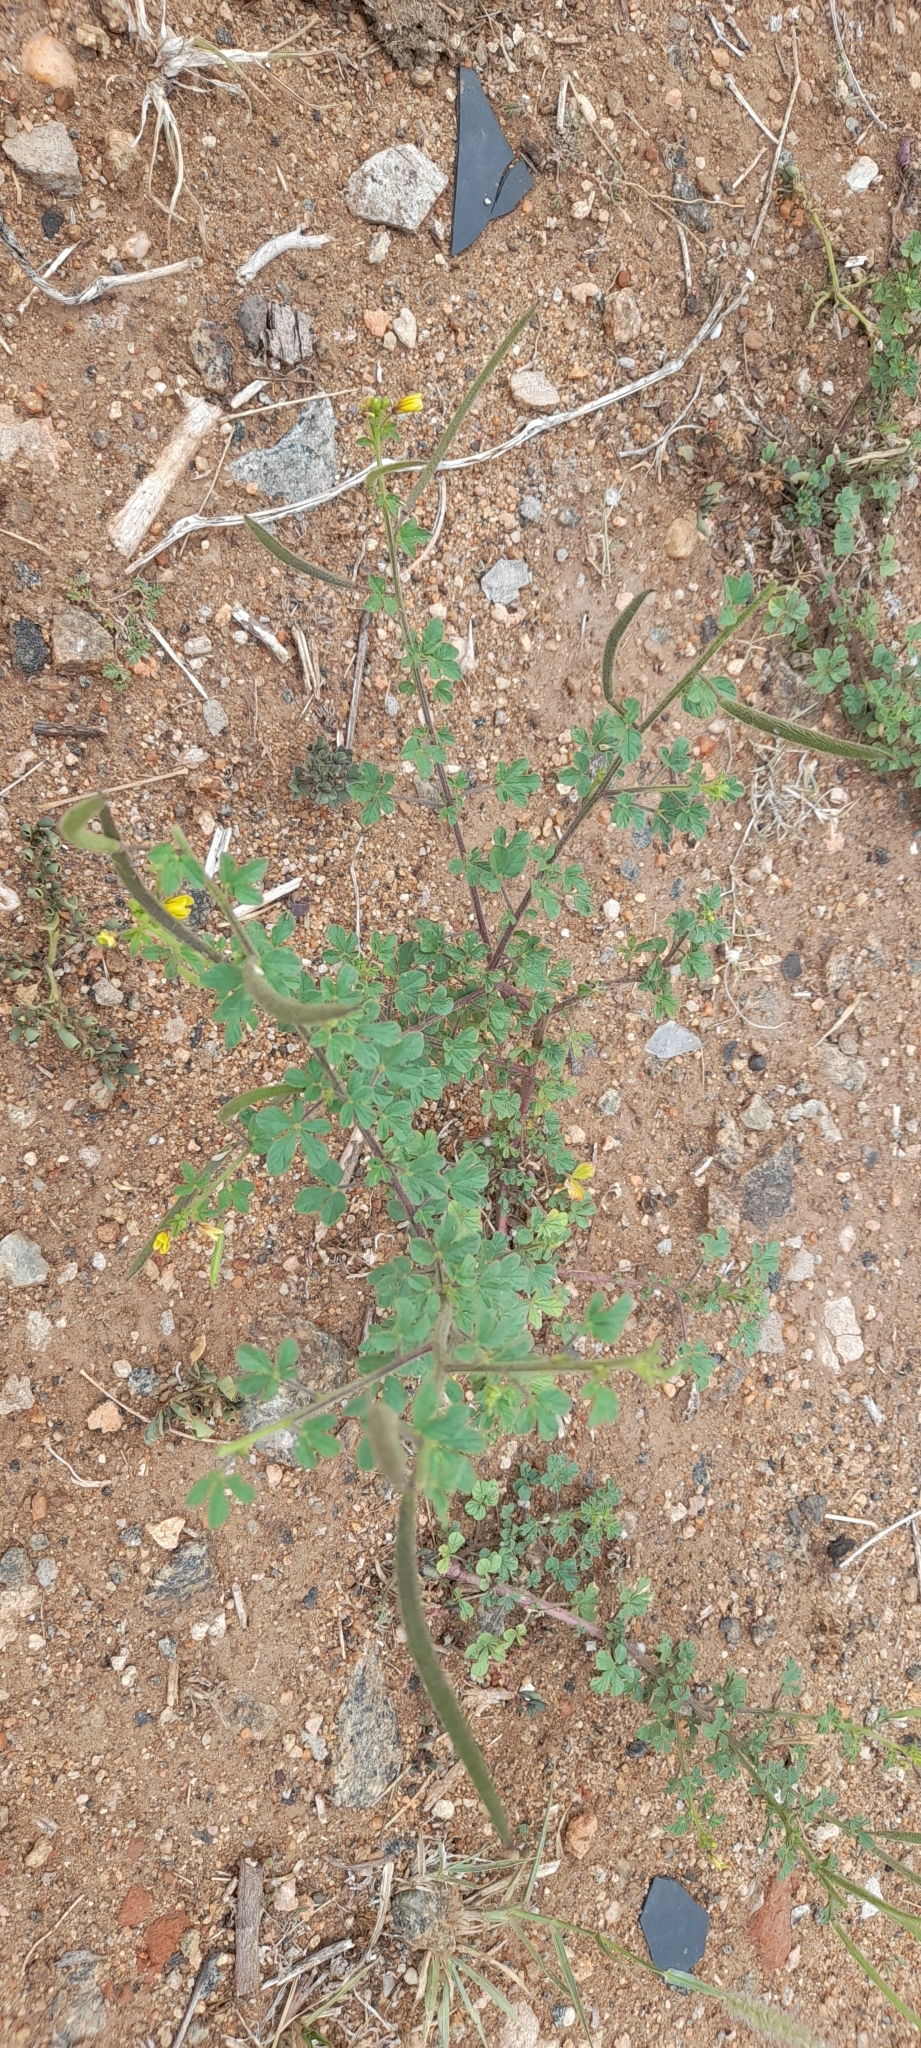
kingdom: Plantae
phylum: Tracheophyta
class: Magnoliopsida
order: Brassicales
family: Cleomaceae
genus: Arivela
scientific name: Arivela viscosa
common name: Asian spiderflower
